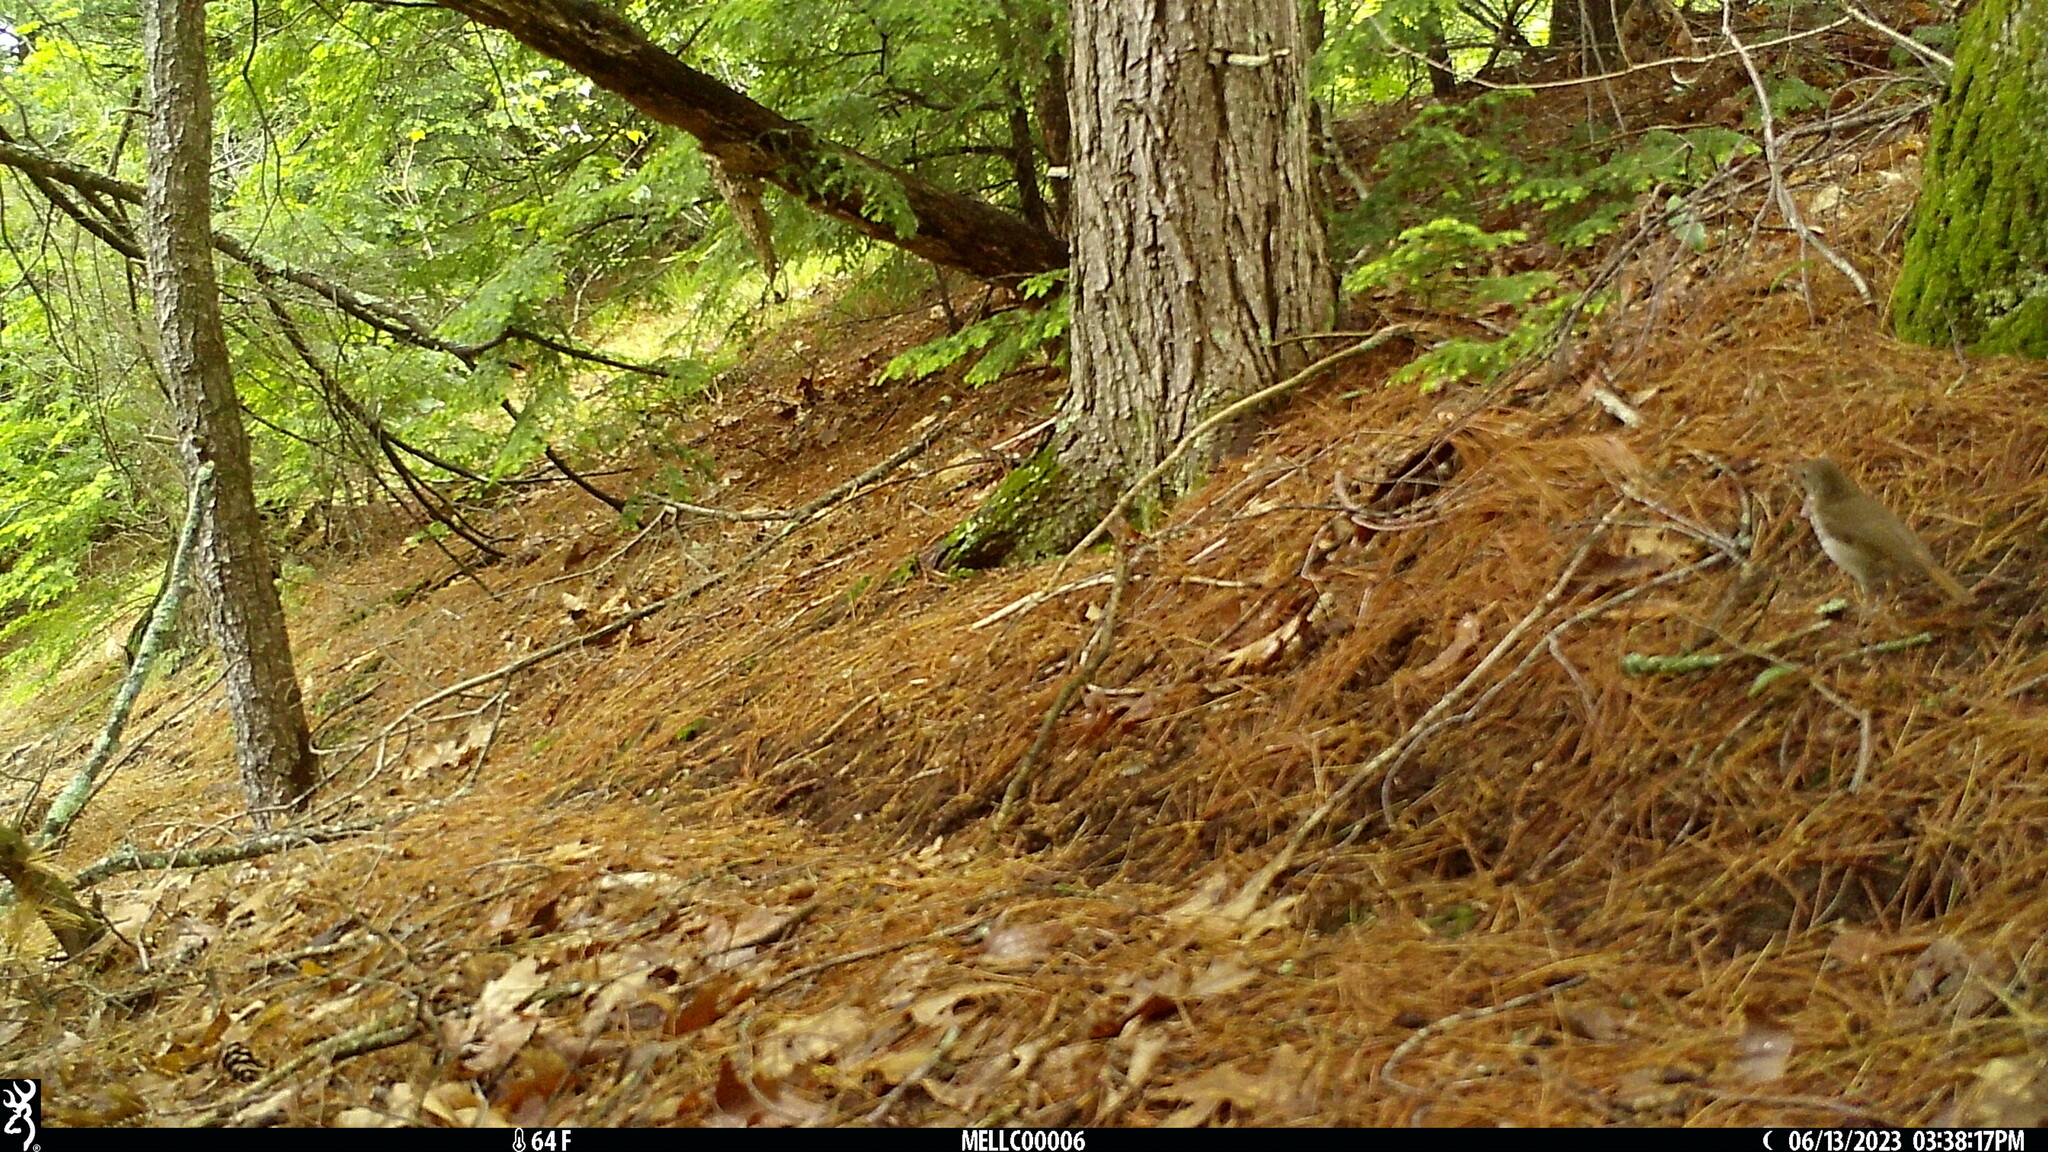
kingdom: Animalia
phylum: Chordata
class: Aves
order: Passeriformes
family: Turdidae
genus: Catharus
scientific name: Catharus guttatus
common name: Hermit thrush
